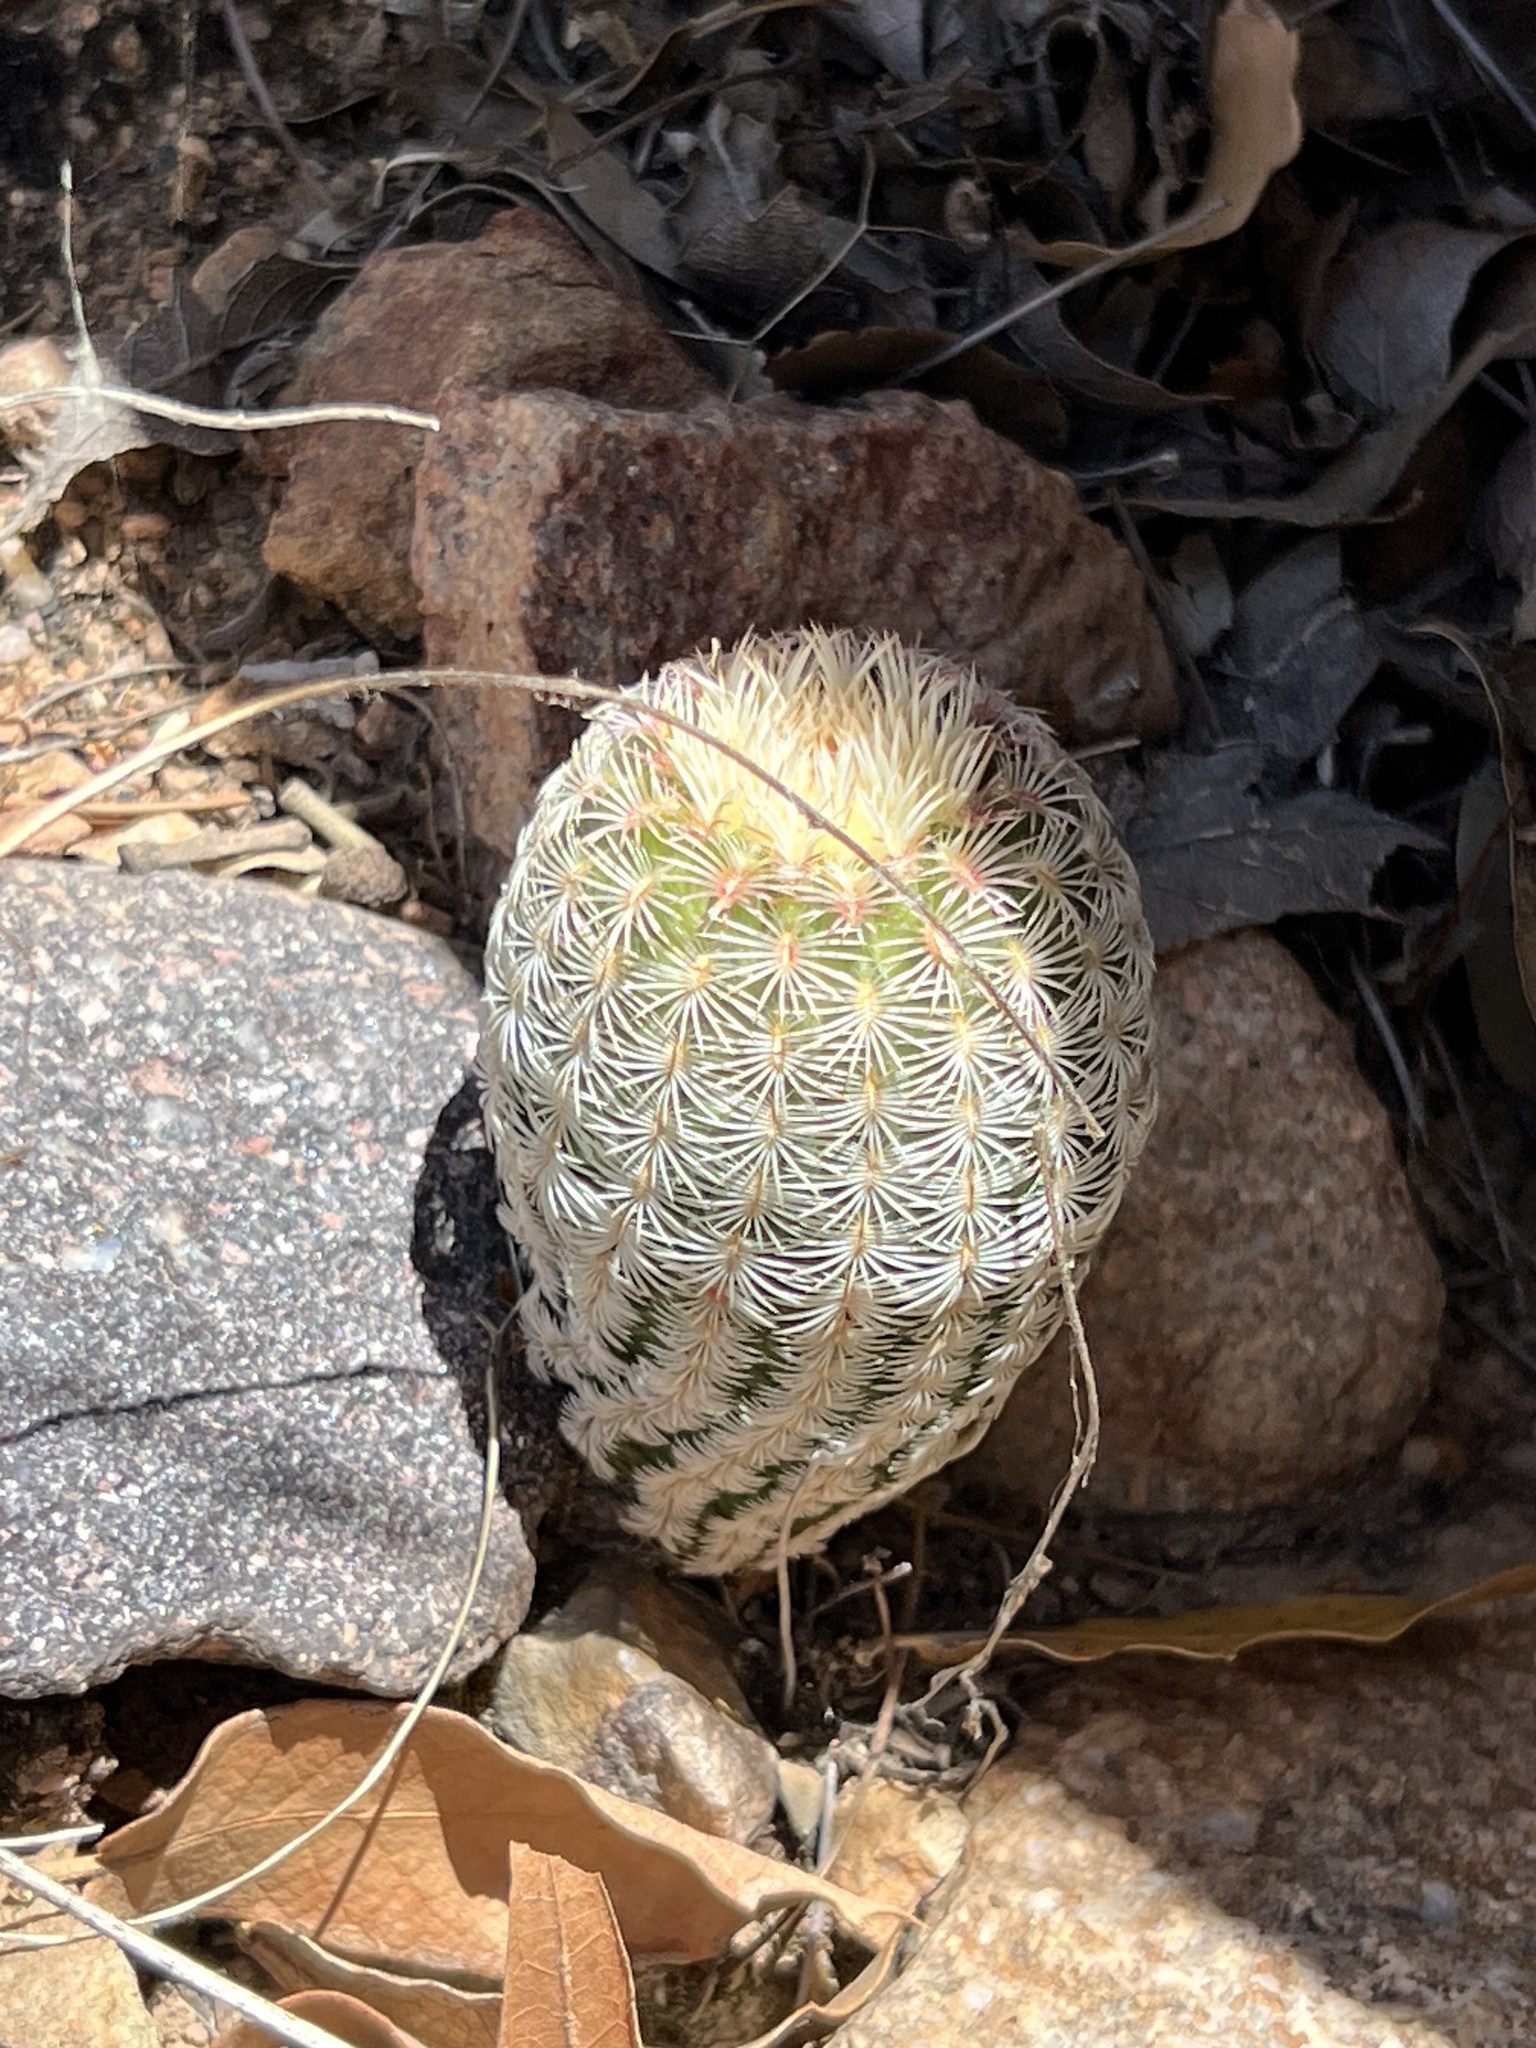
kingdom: Plantae
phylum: Tracheophyta
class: Magnoliopsida
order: Caryophyllales
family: Cactaceae
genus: Echinocereus
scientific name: Echinocereus rigidissimus
